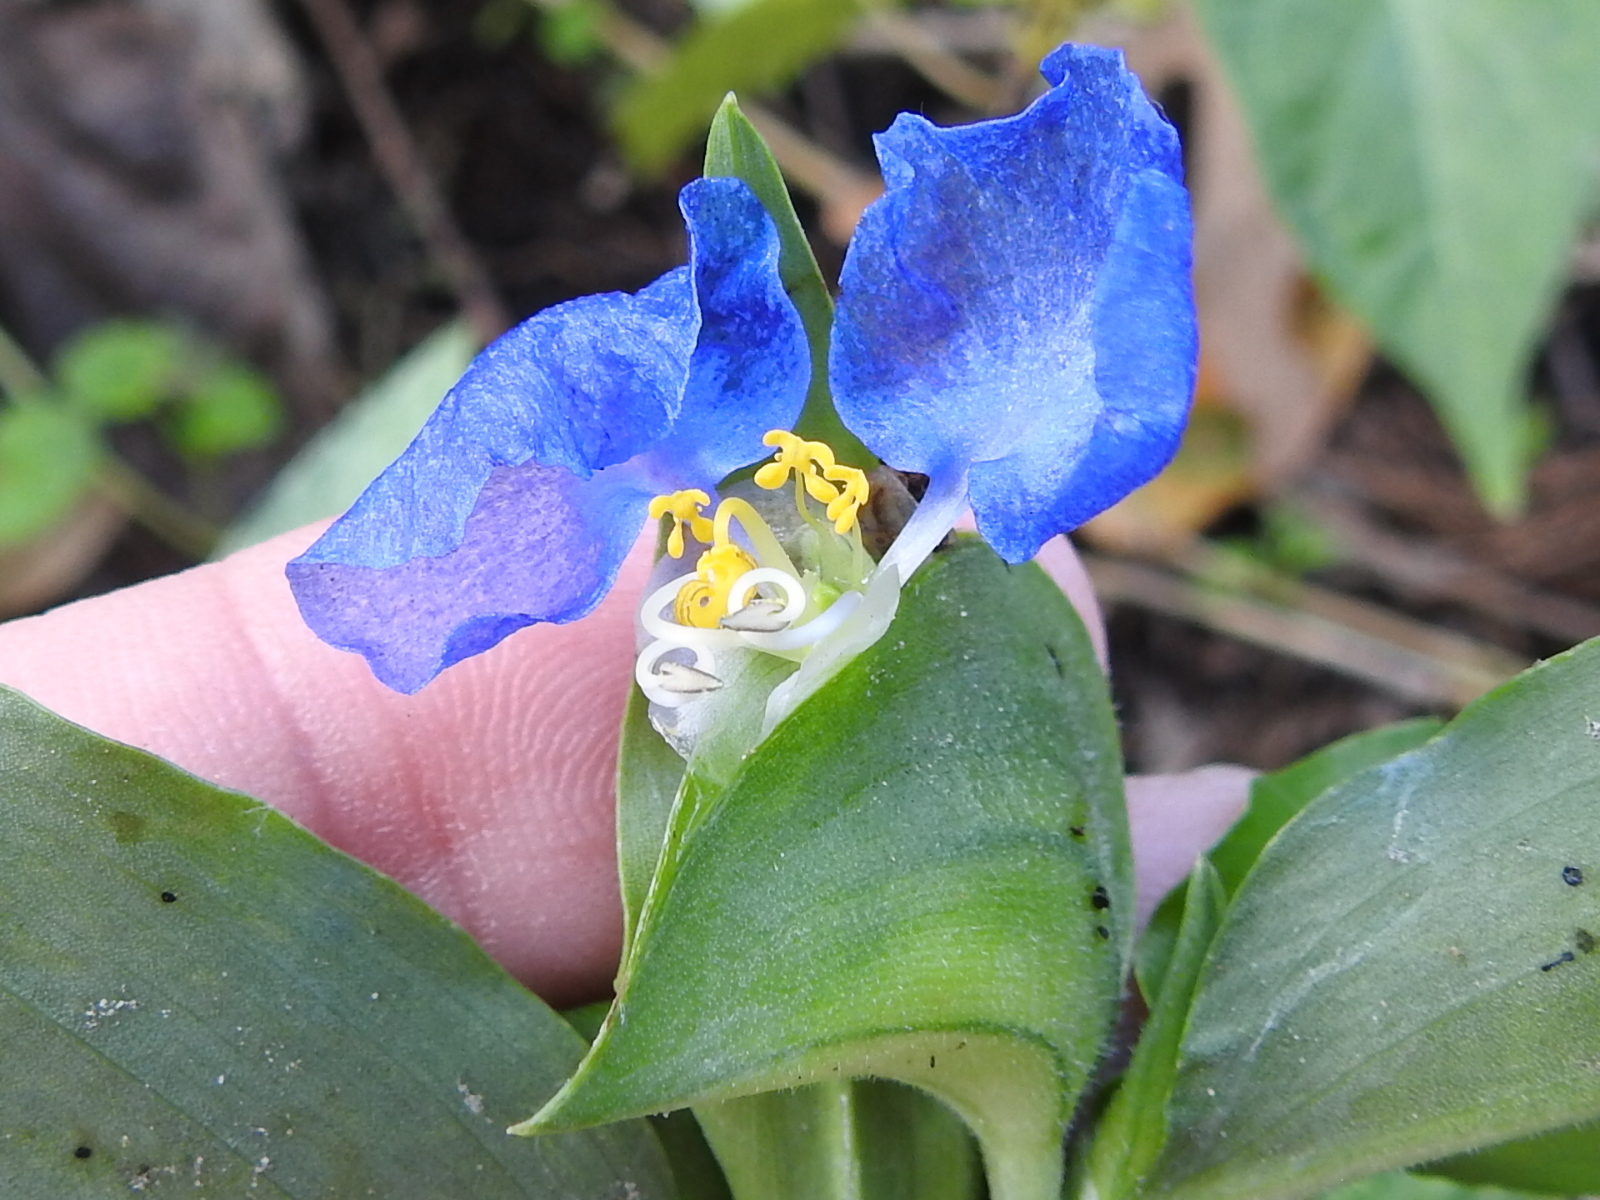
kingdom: Plantae
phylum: Tracheophyta
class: Liliopsida
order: Commelinales
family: Commelinaceae
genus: Commelina
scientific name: Commelina erecta
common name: Blousel blommetjie
